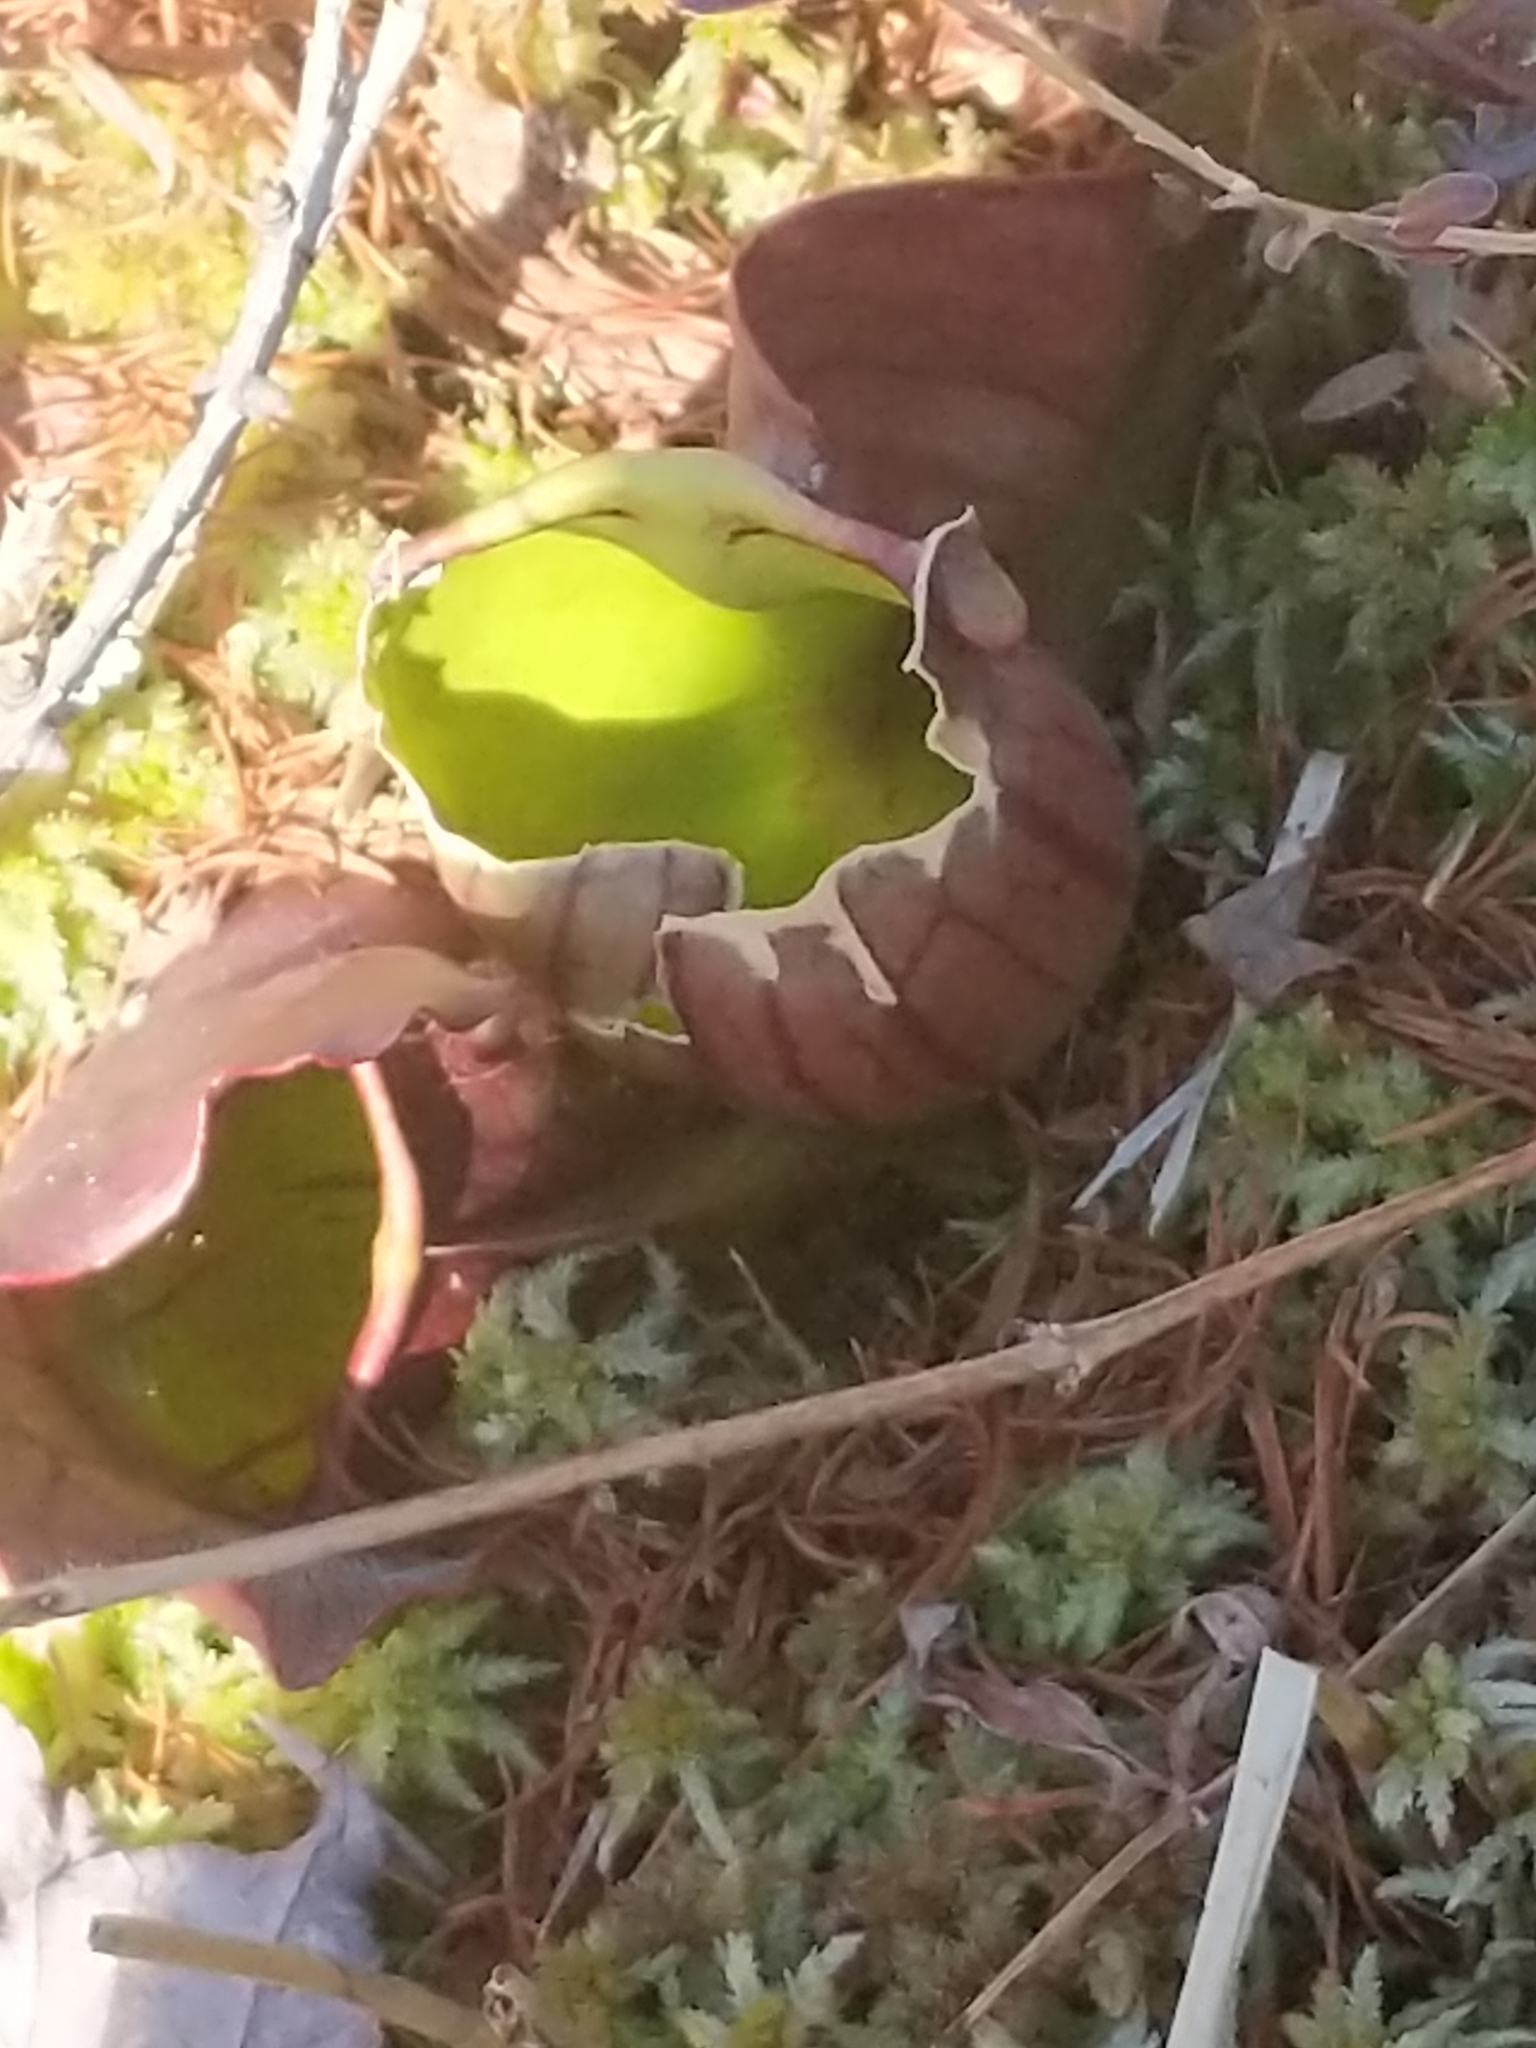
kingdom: Plantae
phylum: Tracheophyta
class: Magnoliopsida
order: Ericales
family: Sarraceniaceae
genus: Sarracenia
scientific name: Sarracenia purpurea
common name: Pitcherplant
